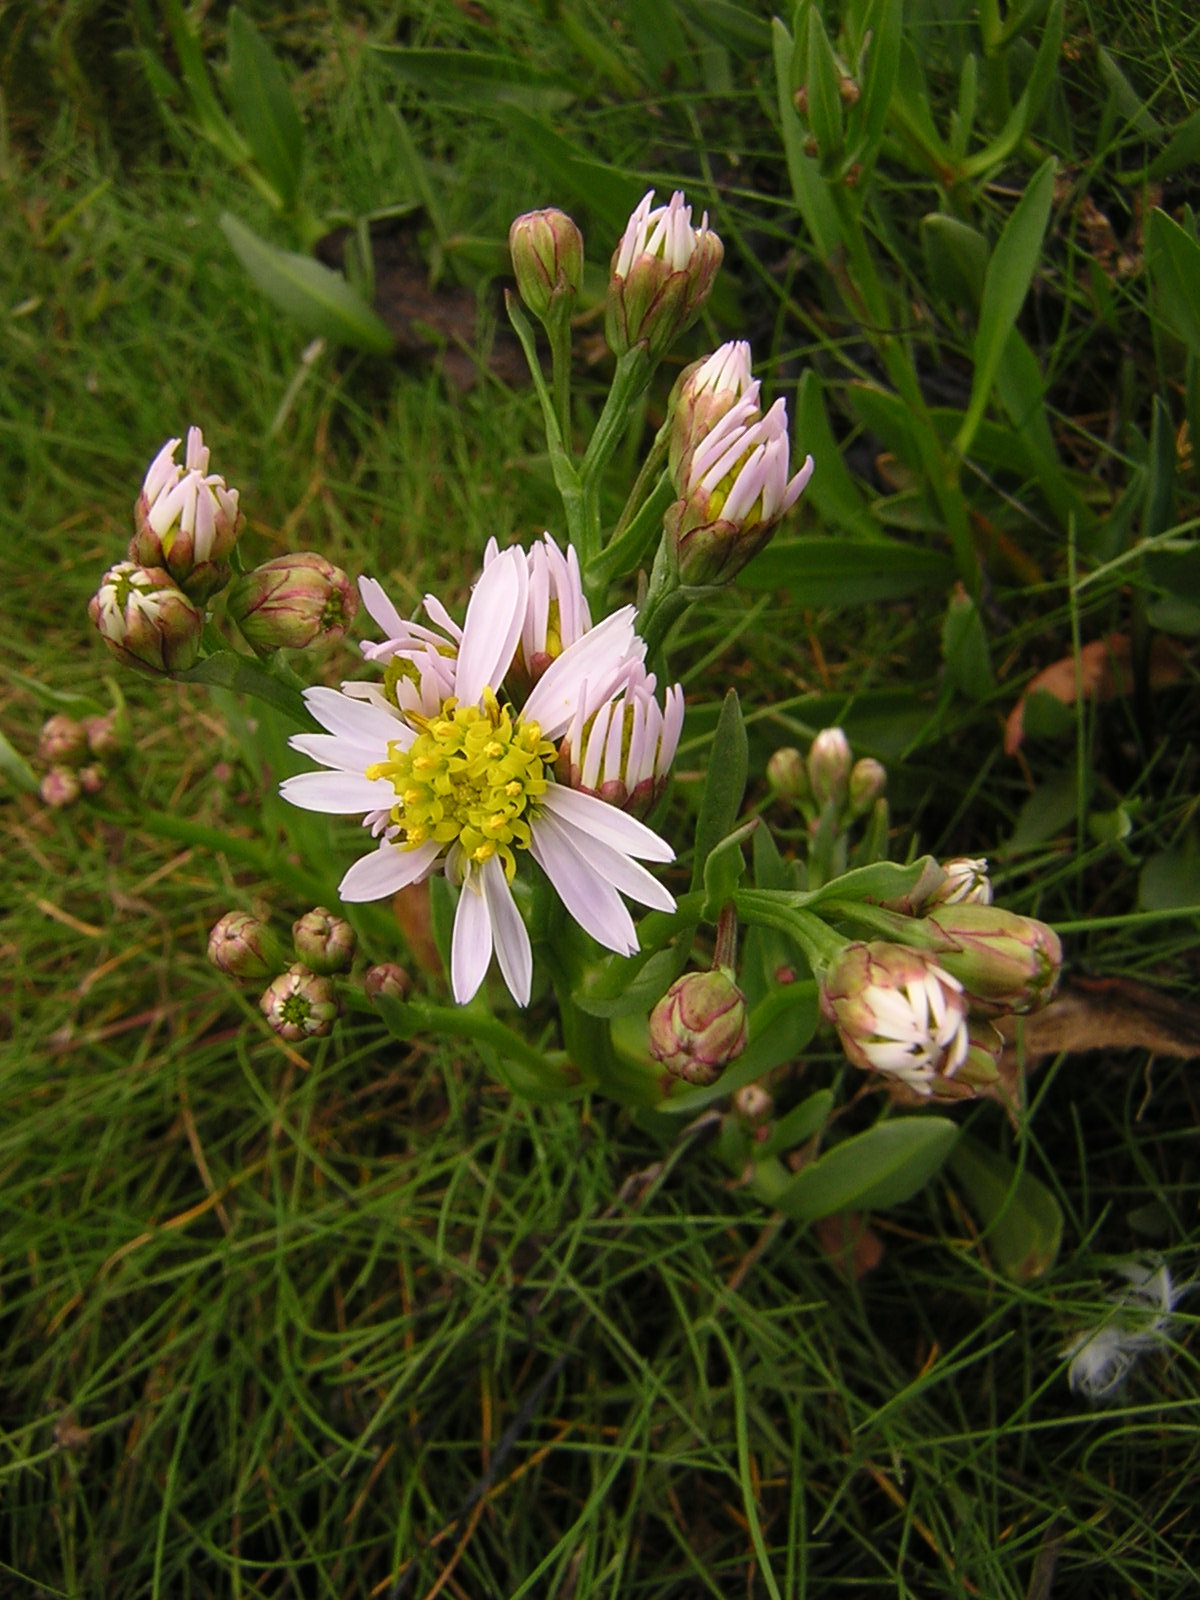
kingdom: Plantae
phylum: Tracheophyta
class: Magnoliopsida
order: Asterales
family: Asteraceae
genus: Tripolium
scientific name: Tripolium pannonicum
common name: Sea aster
